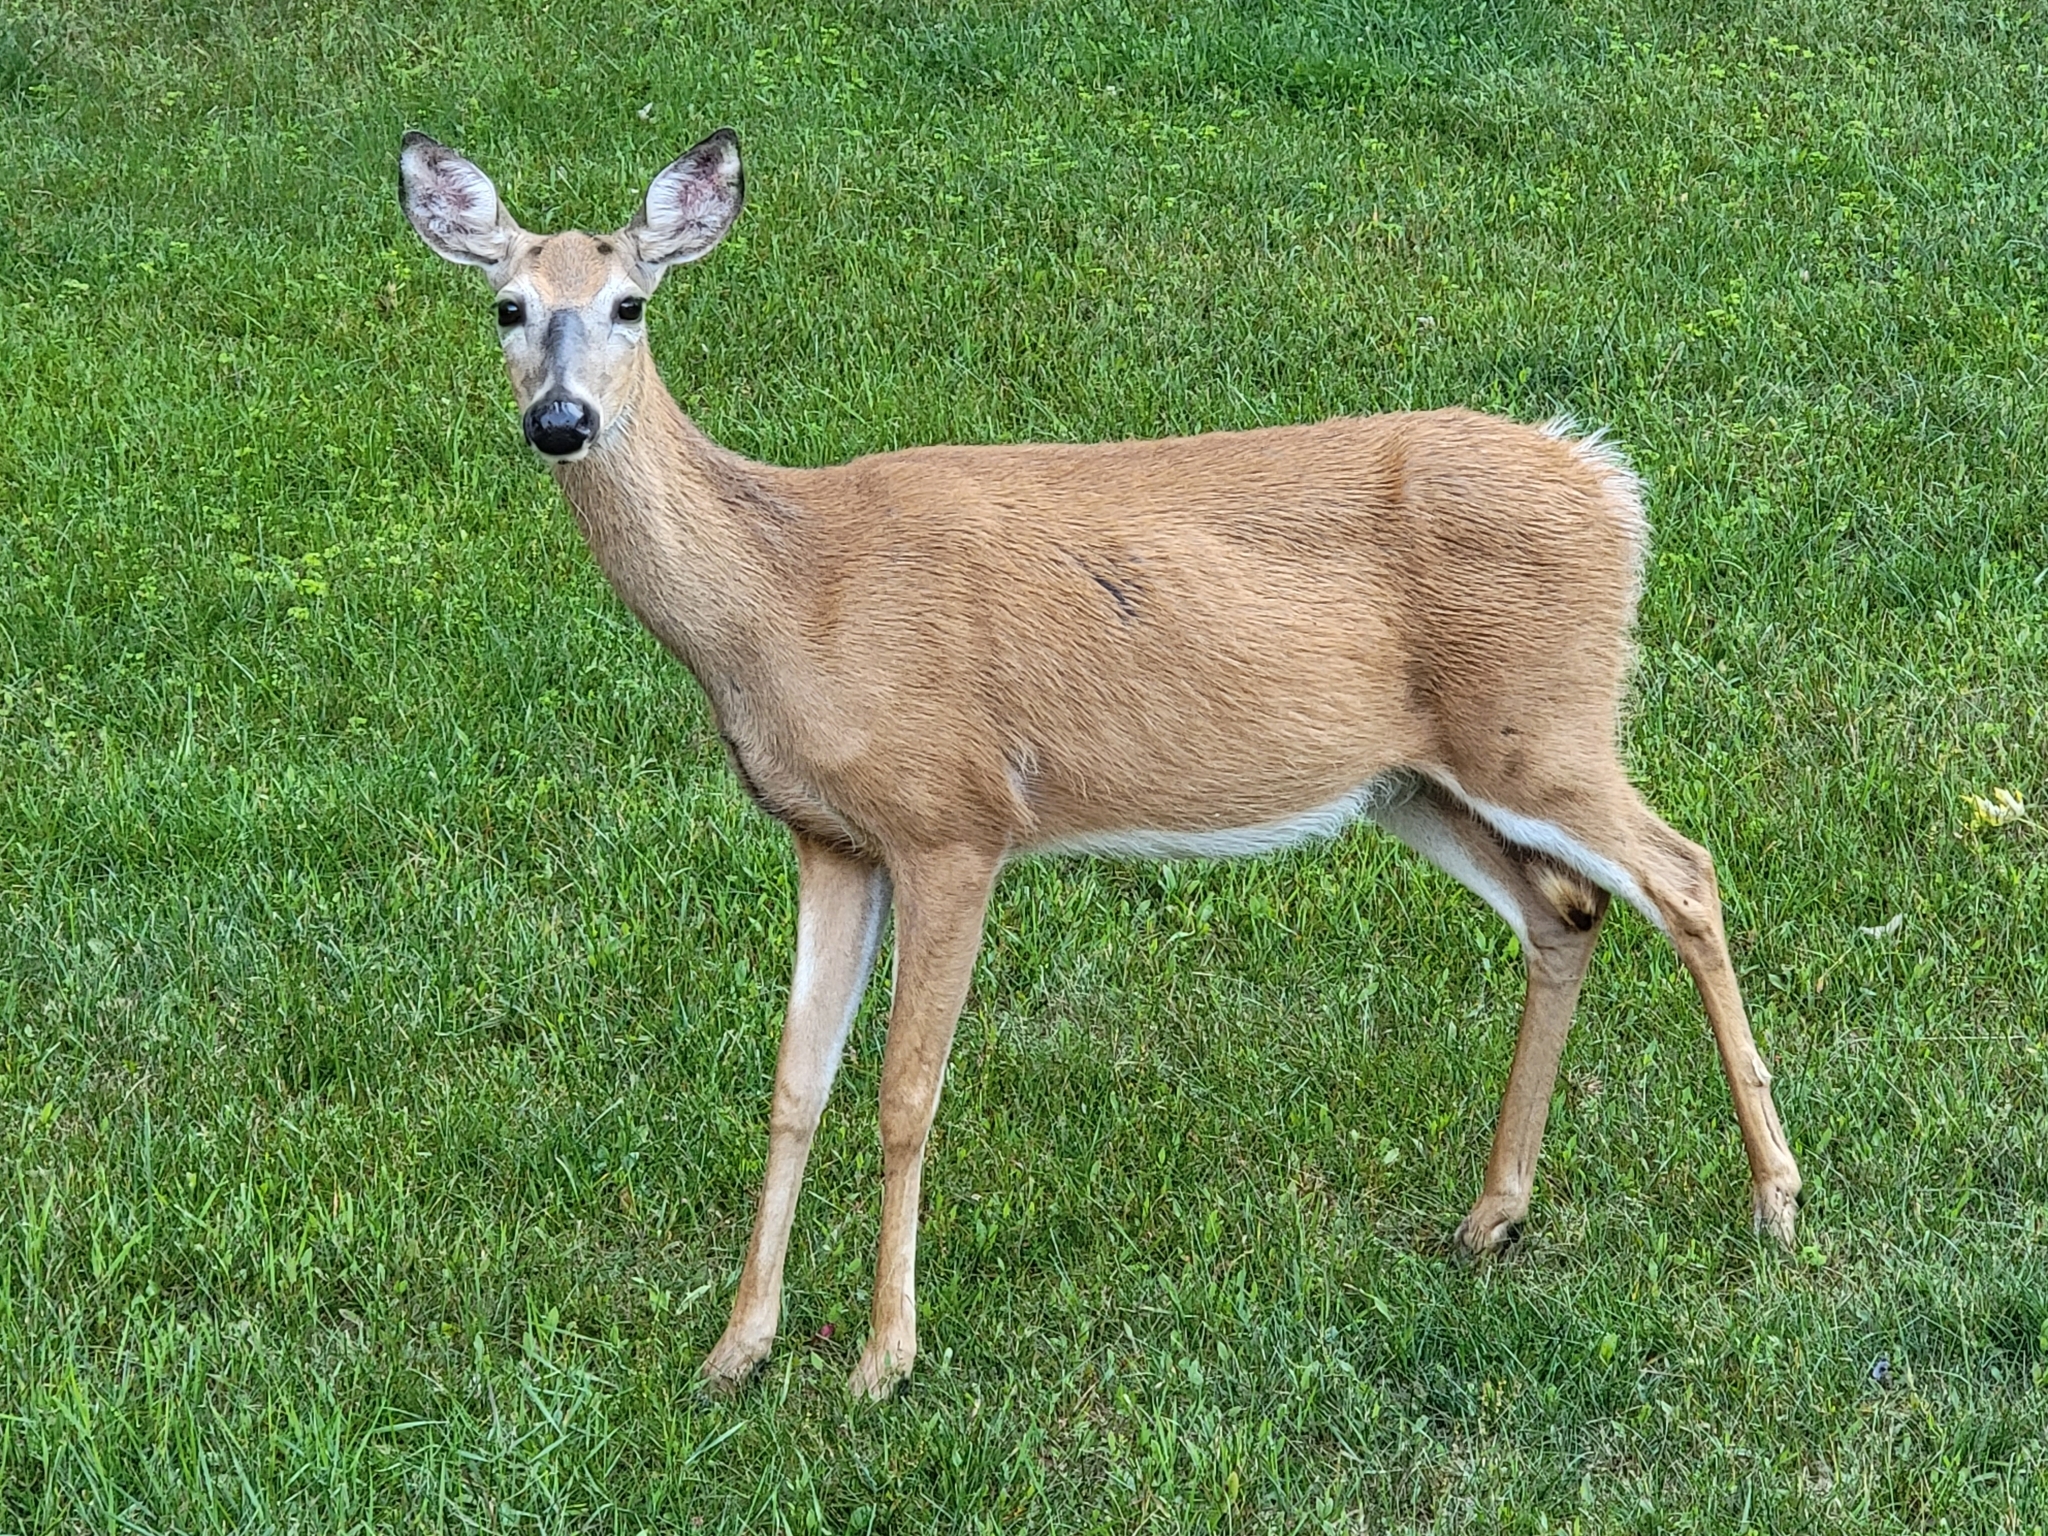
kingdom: Animalia
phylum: Chordata
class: Mammalia
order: Artiodactyla
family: Cervidae
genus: Odocoileus
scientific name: Odocoileus virginianus
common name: White-tailed deer
